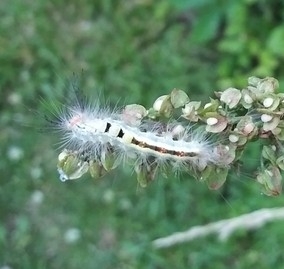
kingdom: Animalia
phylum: Arthropoda
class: Insecta
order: Lepidoptera
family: Erebidae
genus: Orgyia
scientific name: Orgyia leucostigma
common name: White-marked tussock moth
